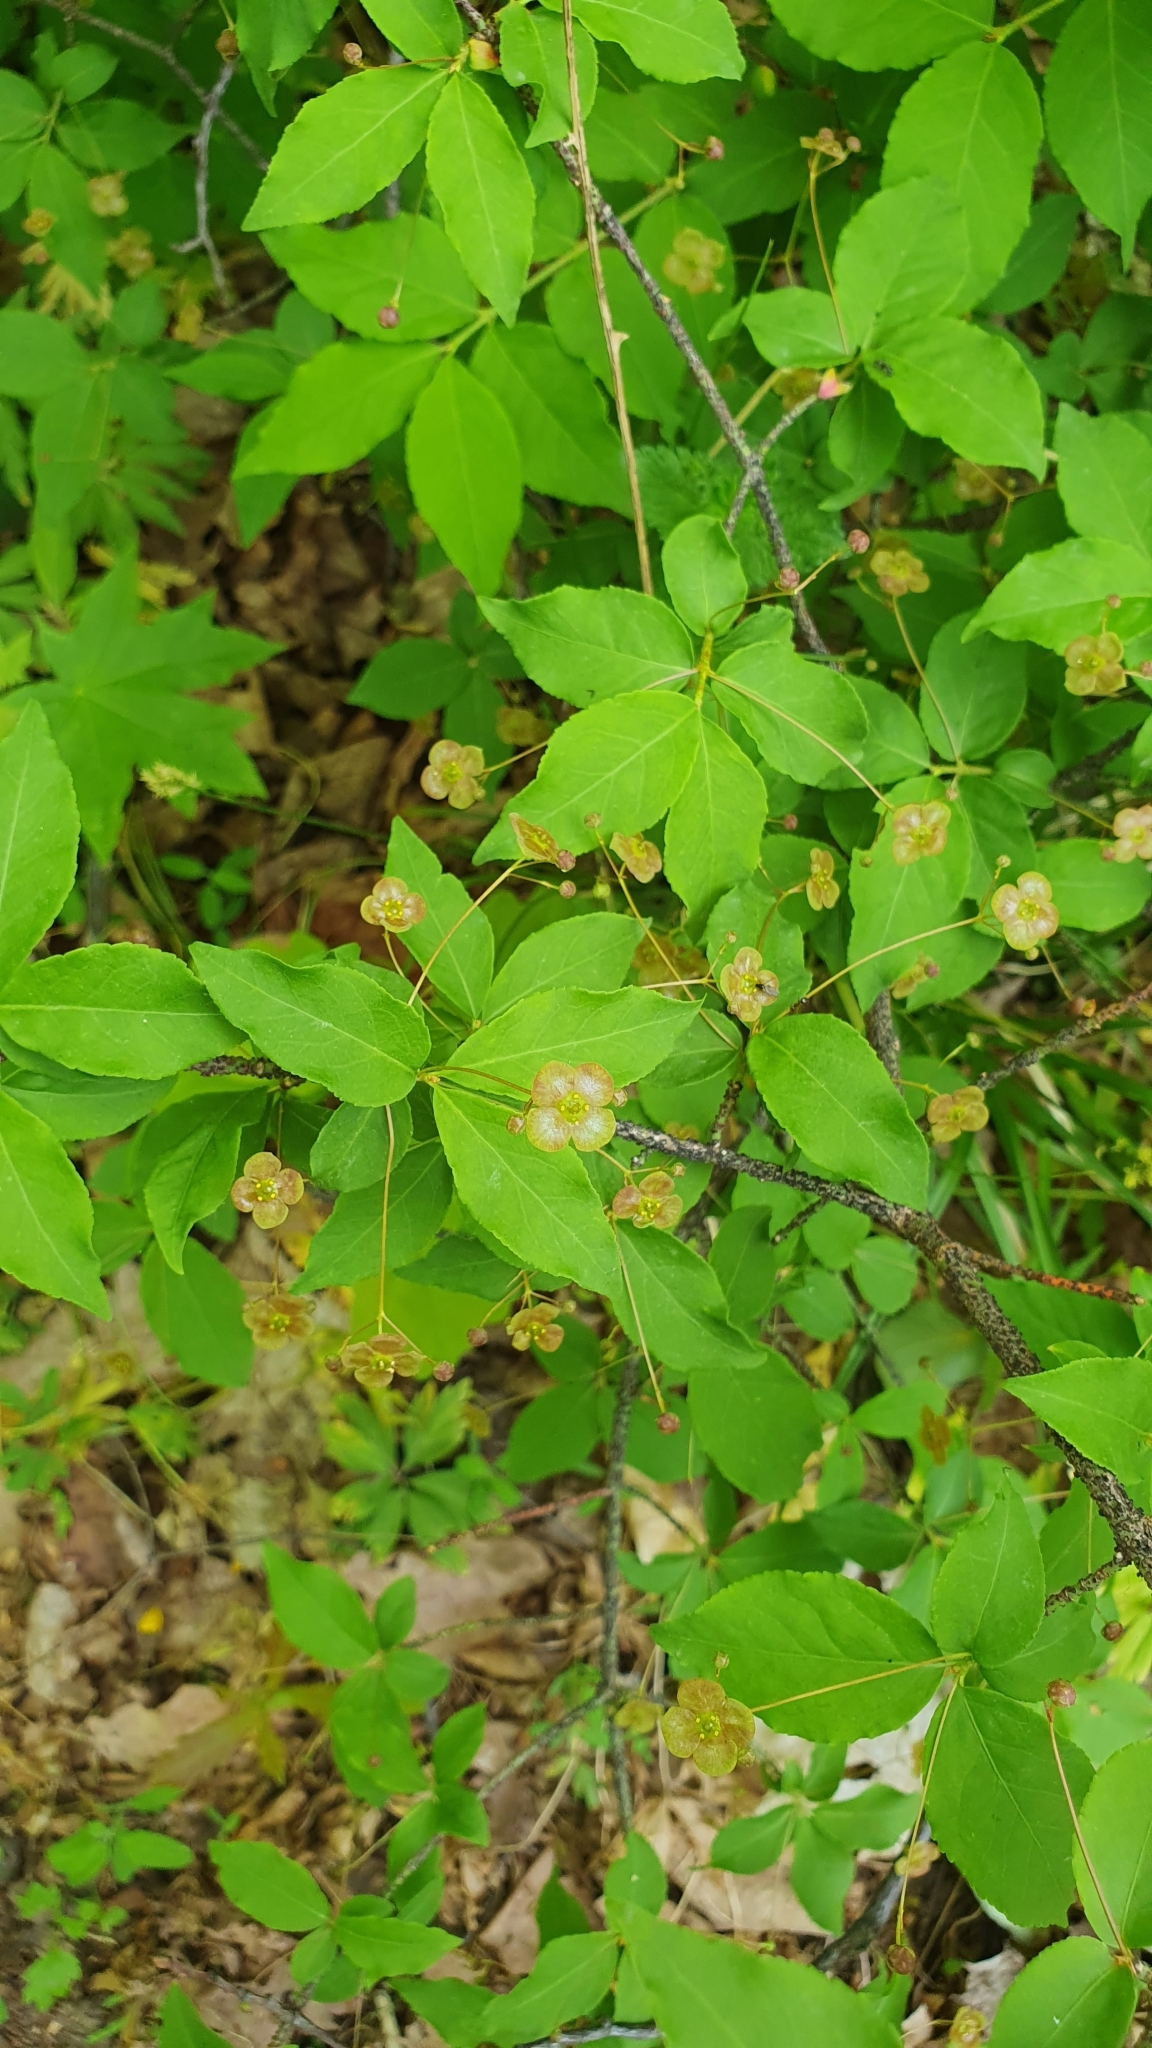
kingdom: Plantae
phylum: Tracheophyta
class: Magnoliopsida
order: Celastrales
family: Celastraceae
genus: Euonymus
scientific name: Euonymus verrucosus
